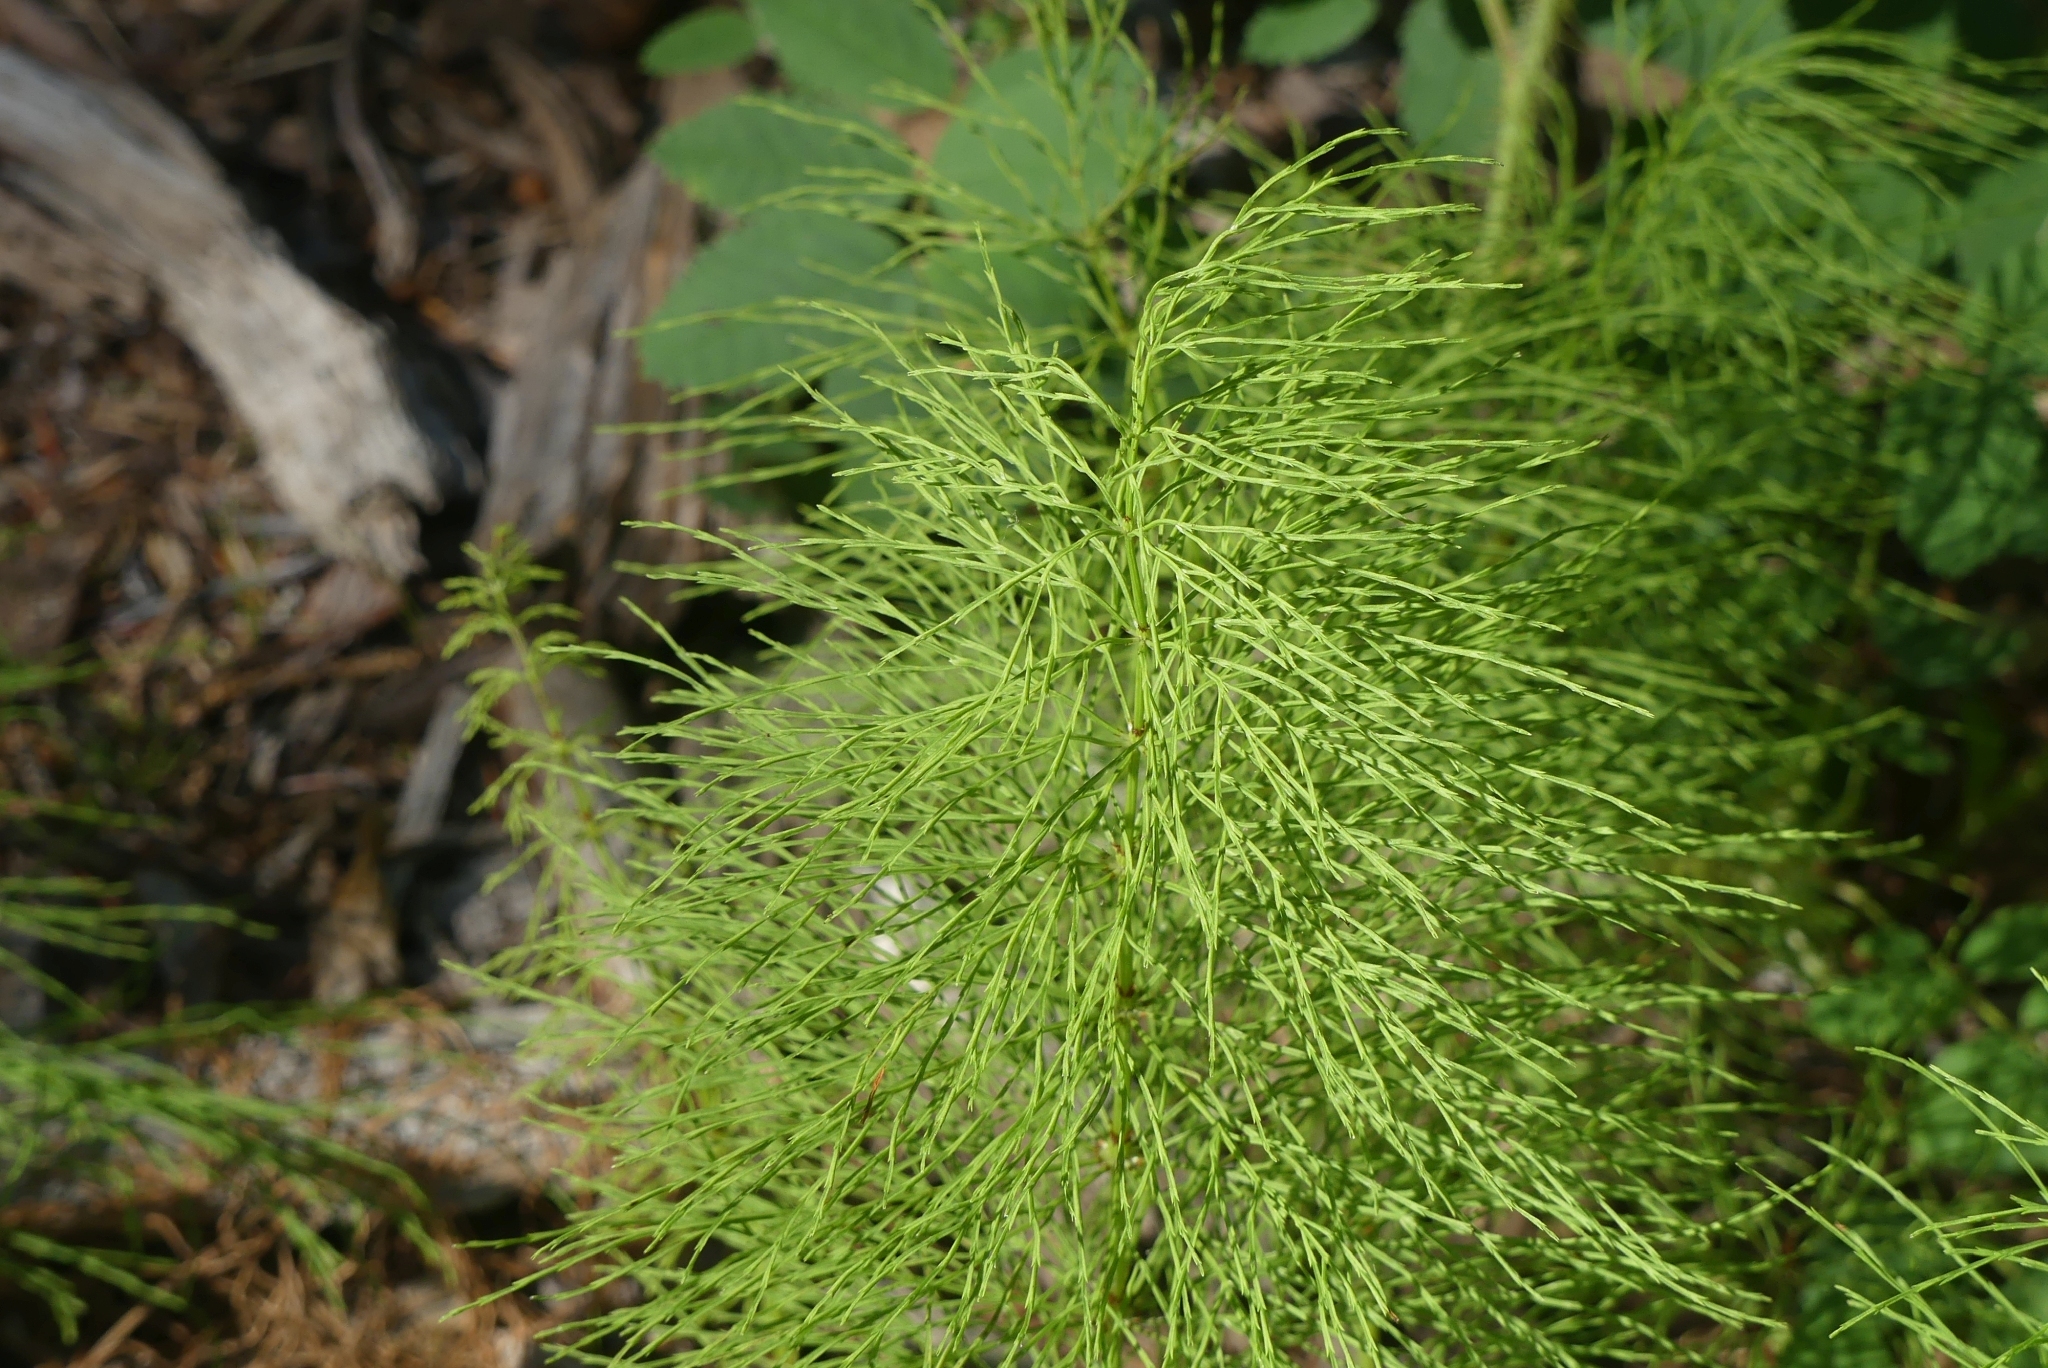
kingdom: Plantae
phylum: Tracheophyta
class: Polypodiopsida
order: Equisetales
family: Equisetaceae
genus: Equisetum
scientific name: Equisetum sylvaticum
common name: Wood horsetail
